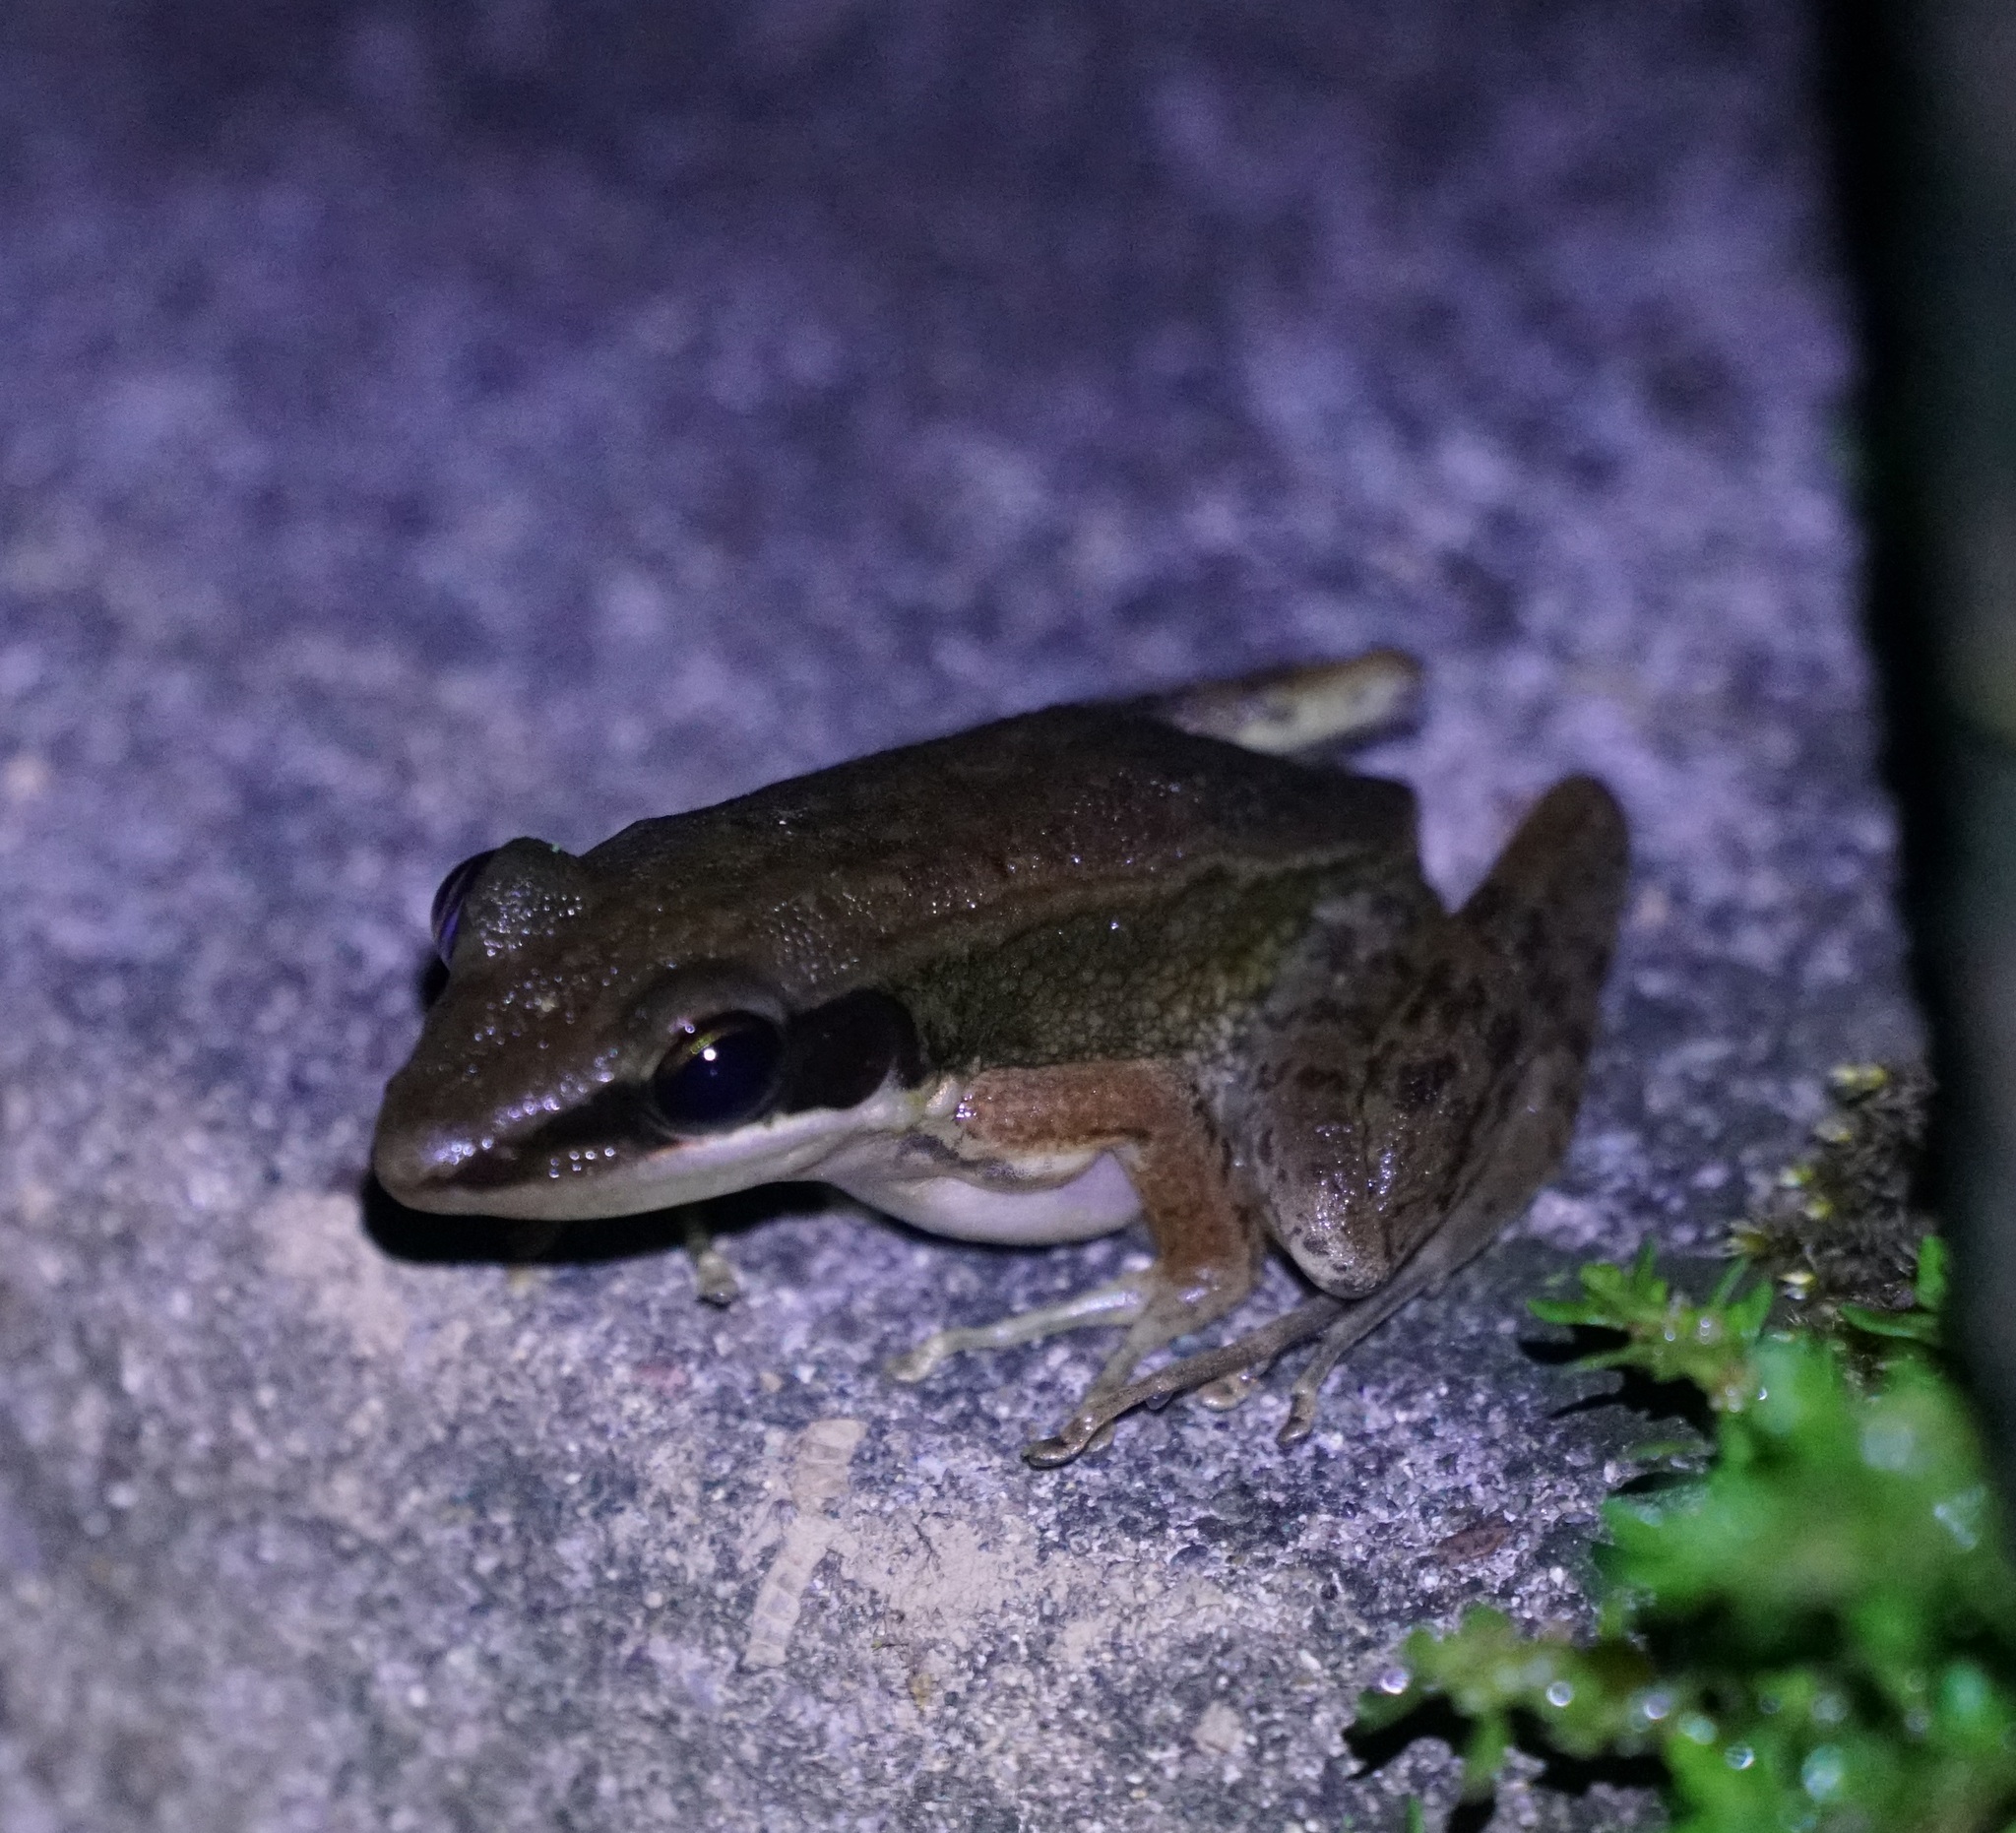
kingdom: Animalia
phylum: Chordata
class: Amphibia
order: Anura
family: Ranidae
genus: Bijurana
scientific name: Bijurana nicobariensis
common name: Cricket frog
